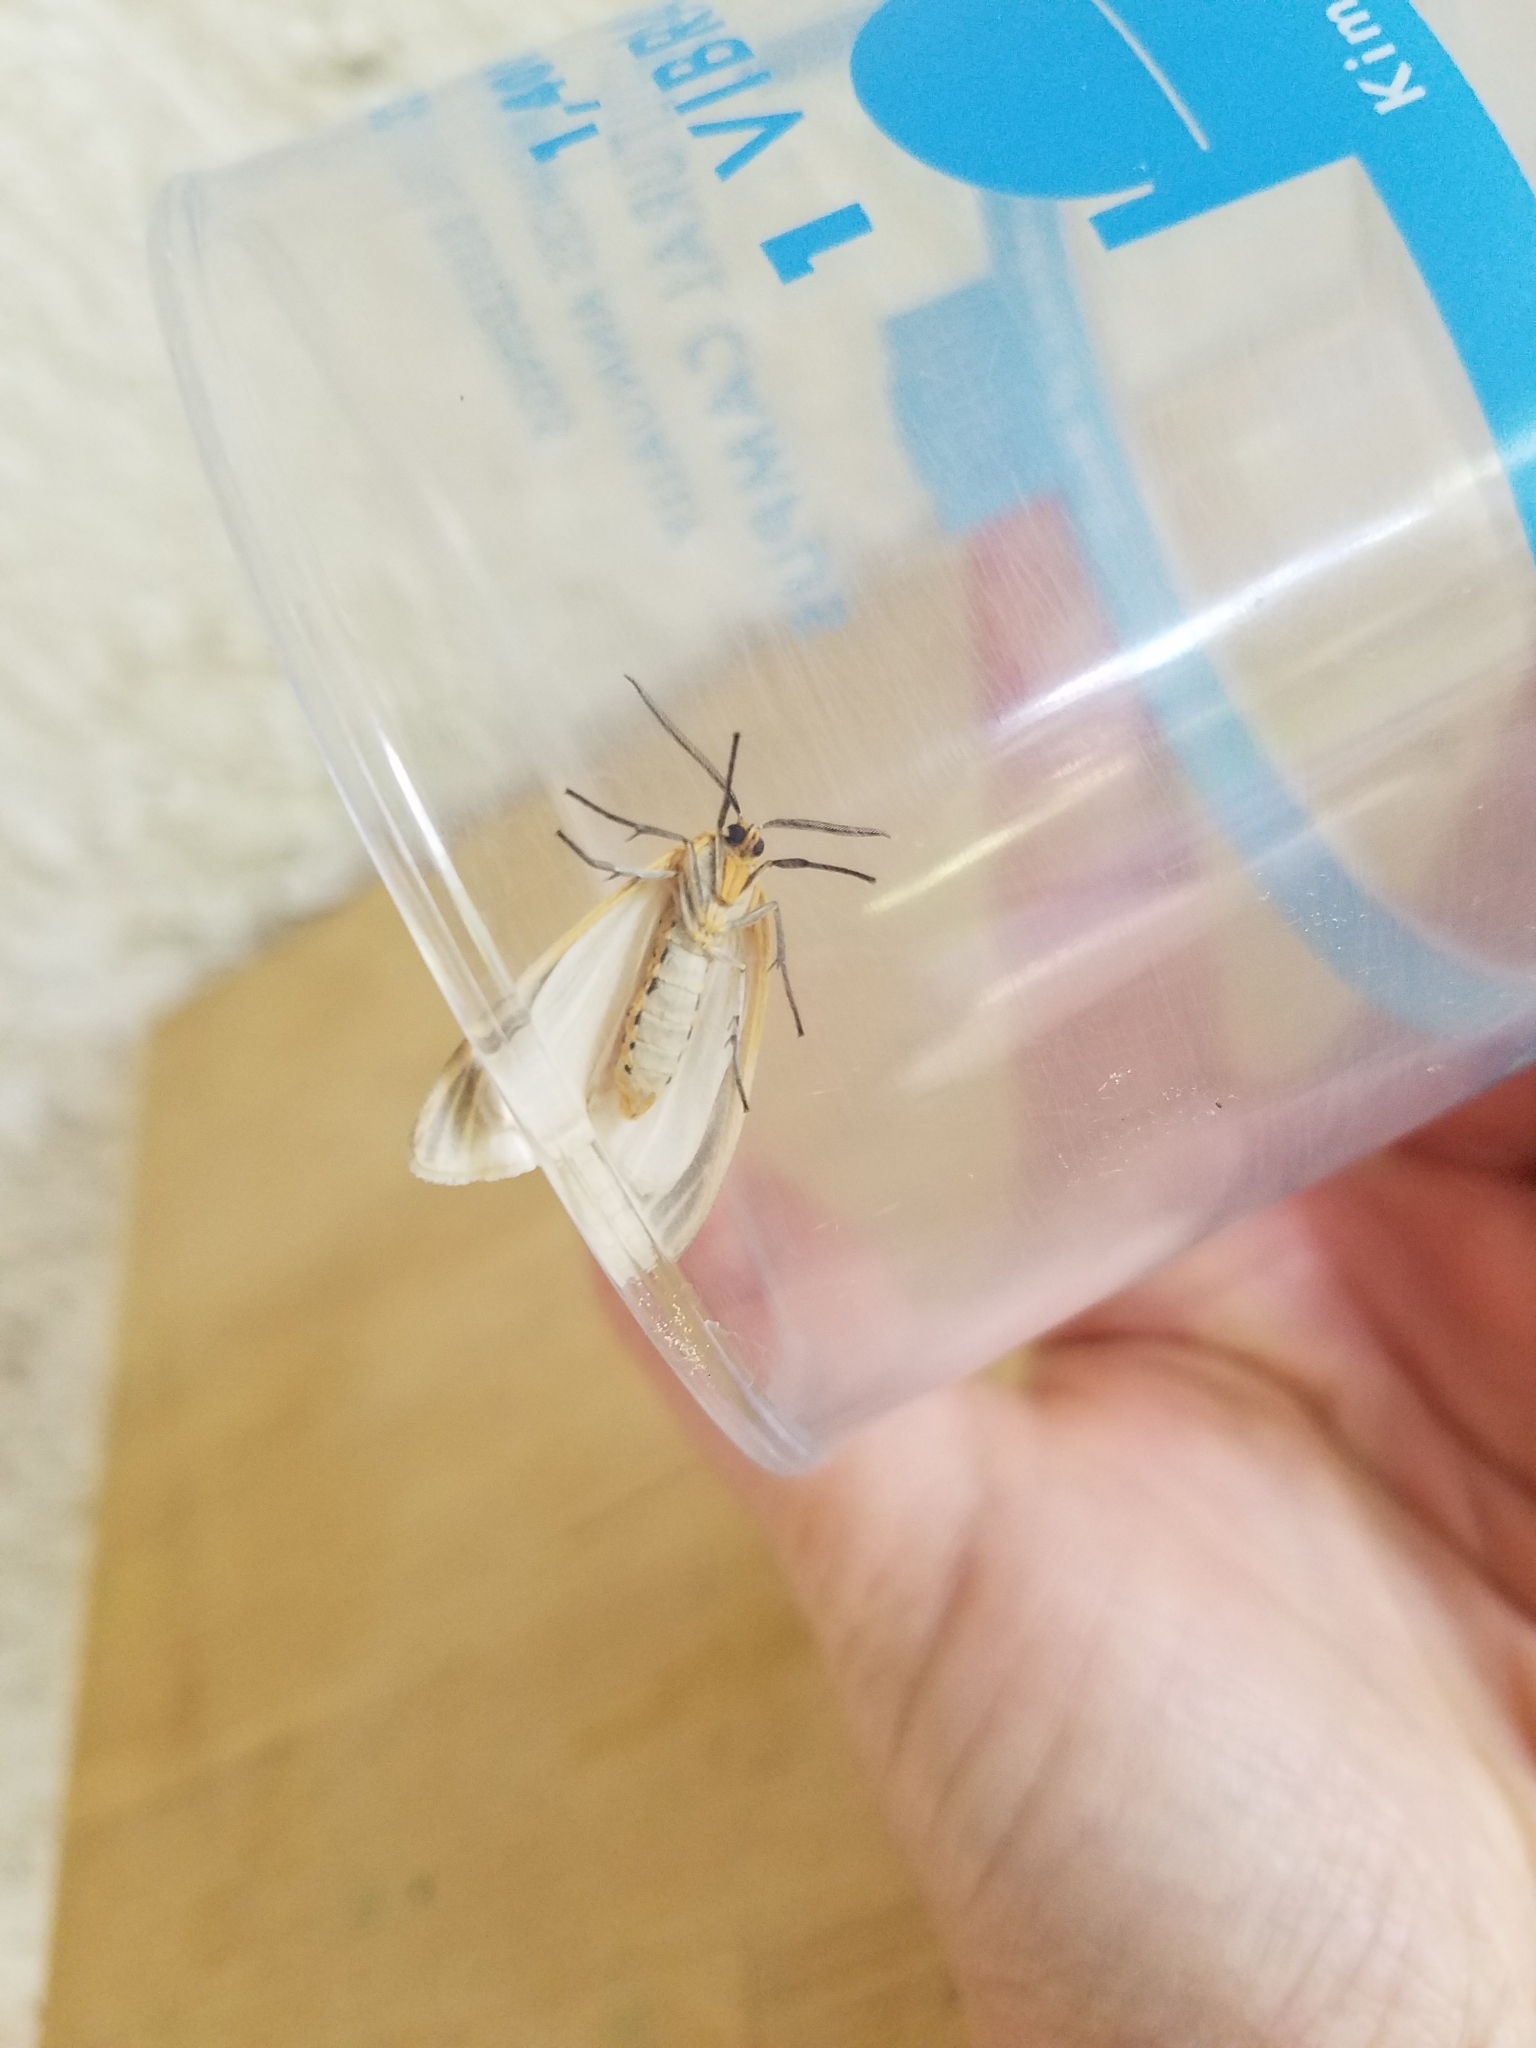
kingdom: Animalia
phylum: Arthropoda
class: Insecta
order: Lepidoptera
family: Erebidae
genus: Cycnia
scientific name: Cycnia tenera
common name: Delicate cycnia moth
